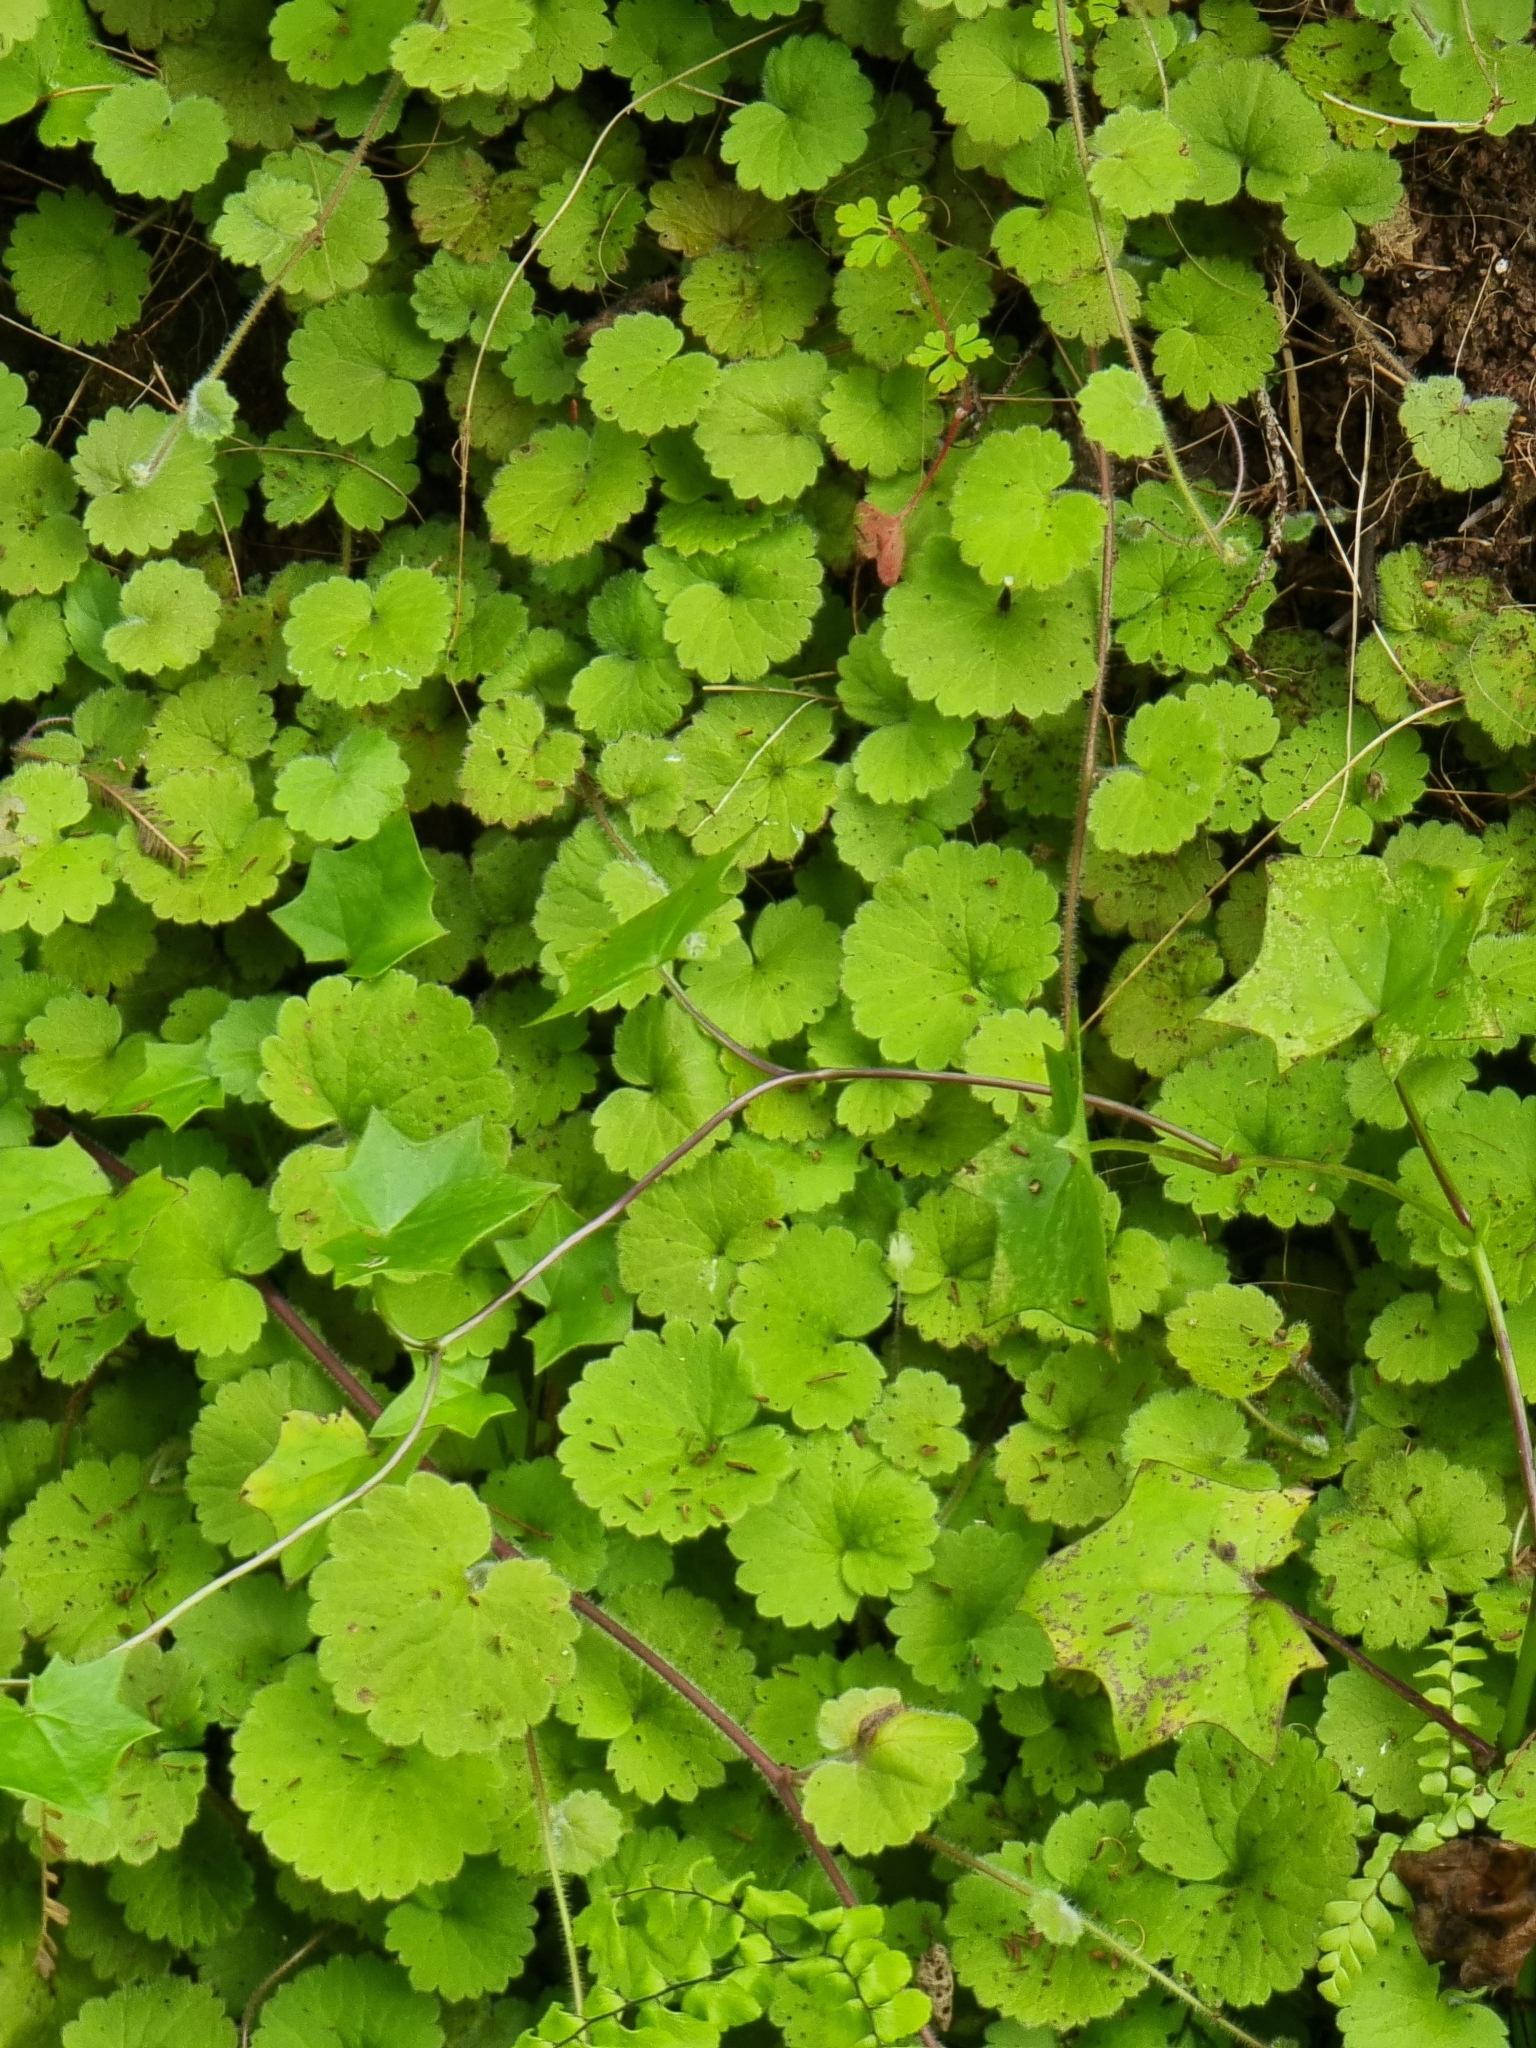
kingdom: Plantae
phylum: Tracheophyta
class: Magnoliopsida
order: Lamiales
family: Plantaginaceae
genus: Sibthorpia
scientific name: Sibthorpia peregrina
